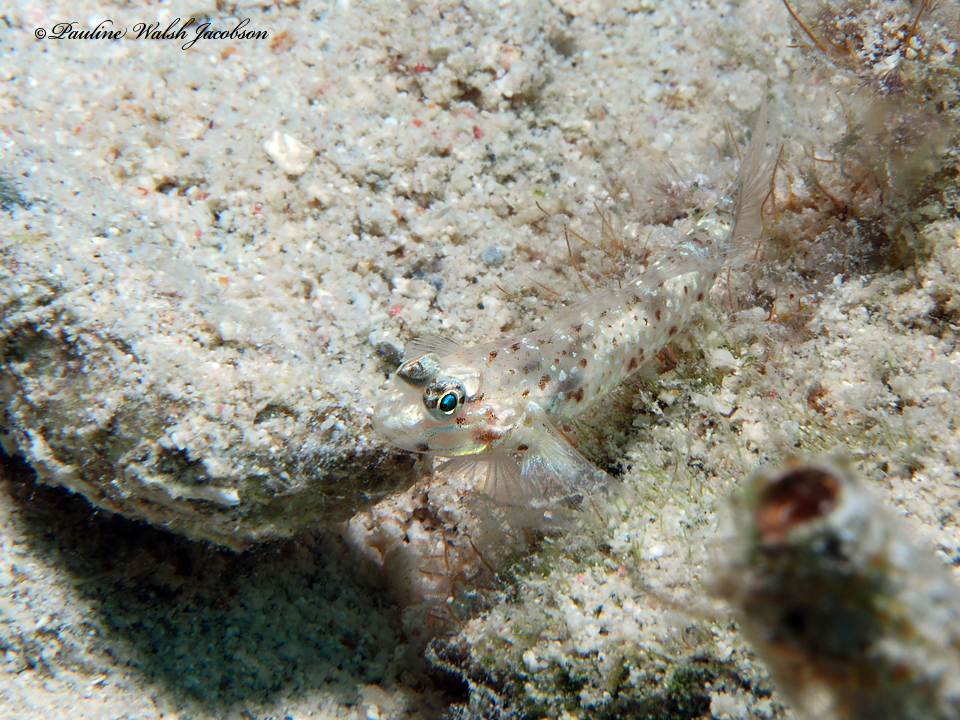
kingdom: Animalia
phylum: Chordata
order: Perciformes
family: Gobiidae
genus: Coryphopterus
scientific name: Coryphopterus dicrus
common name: Colon goby
